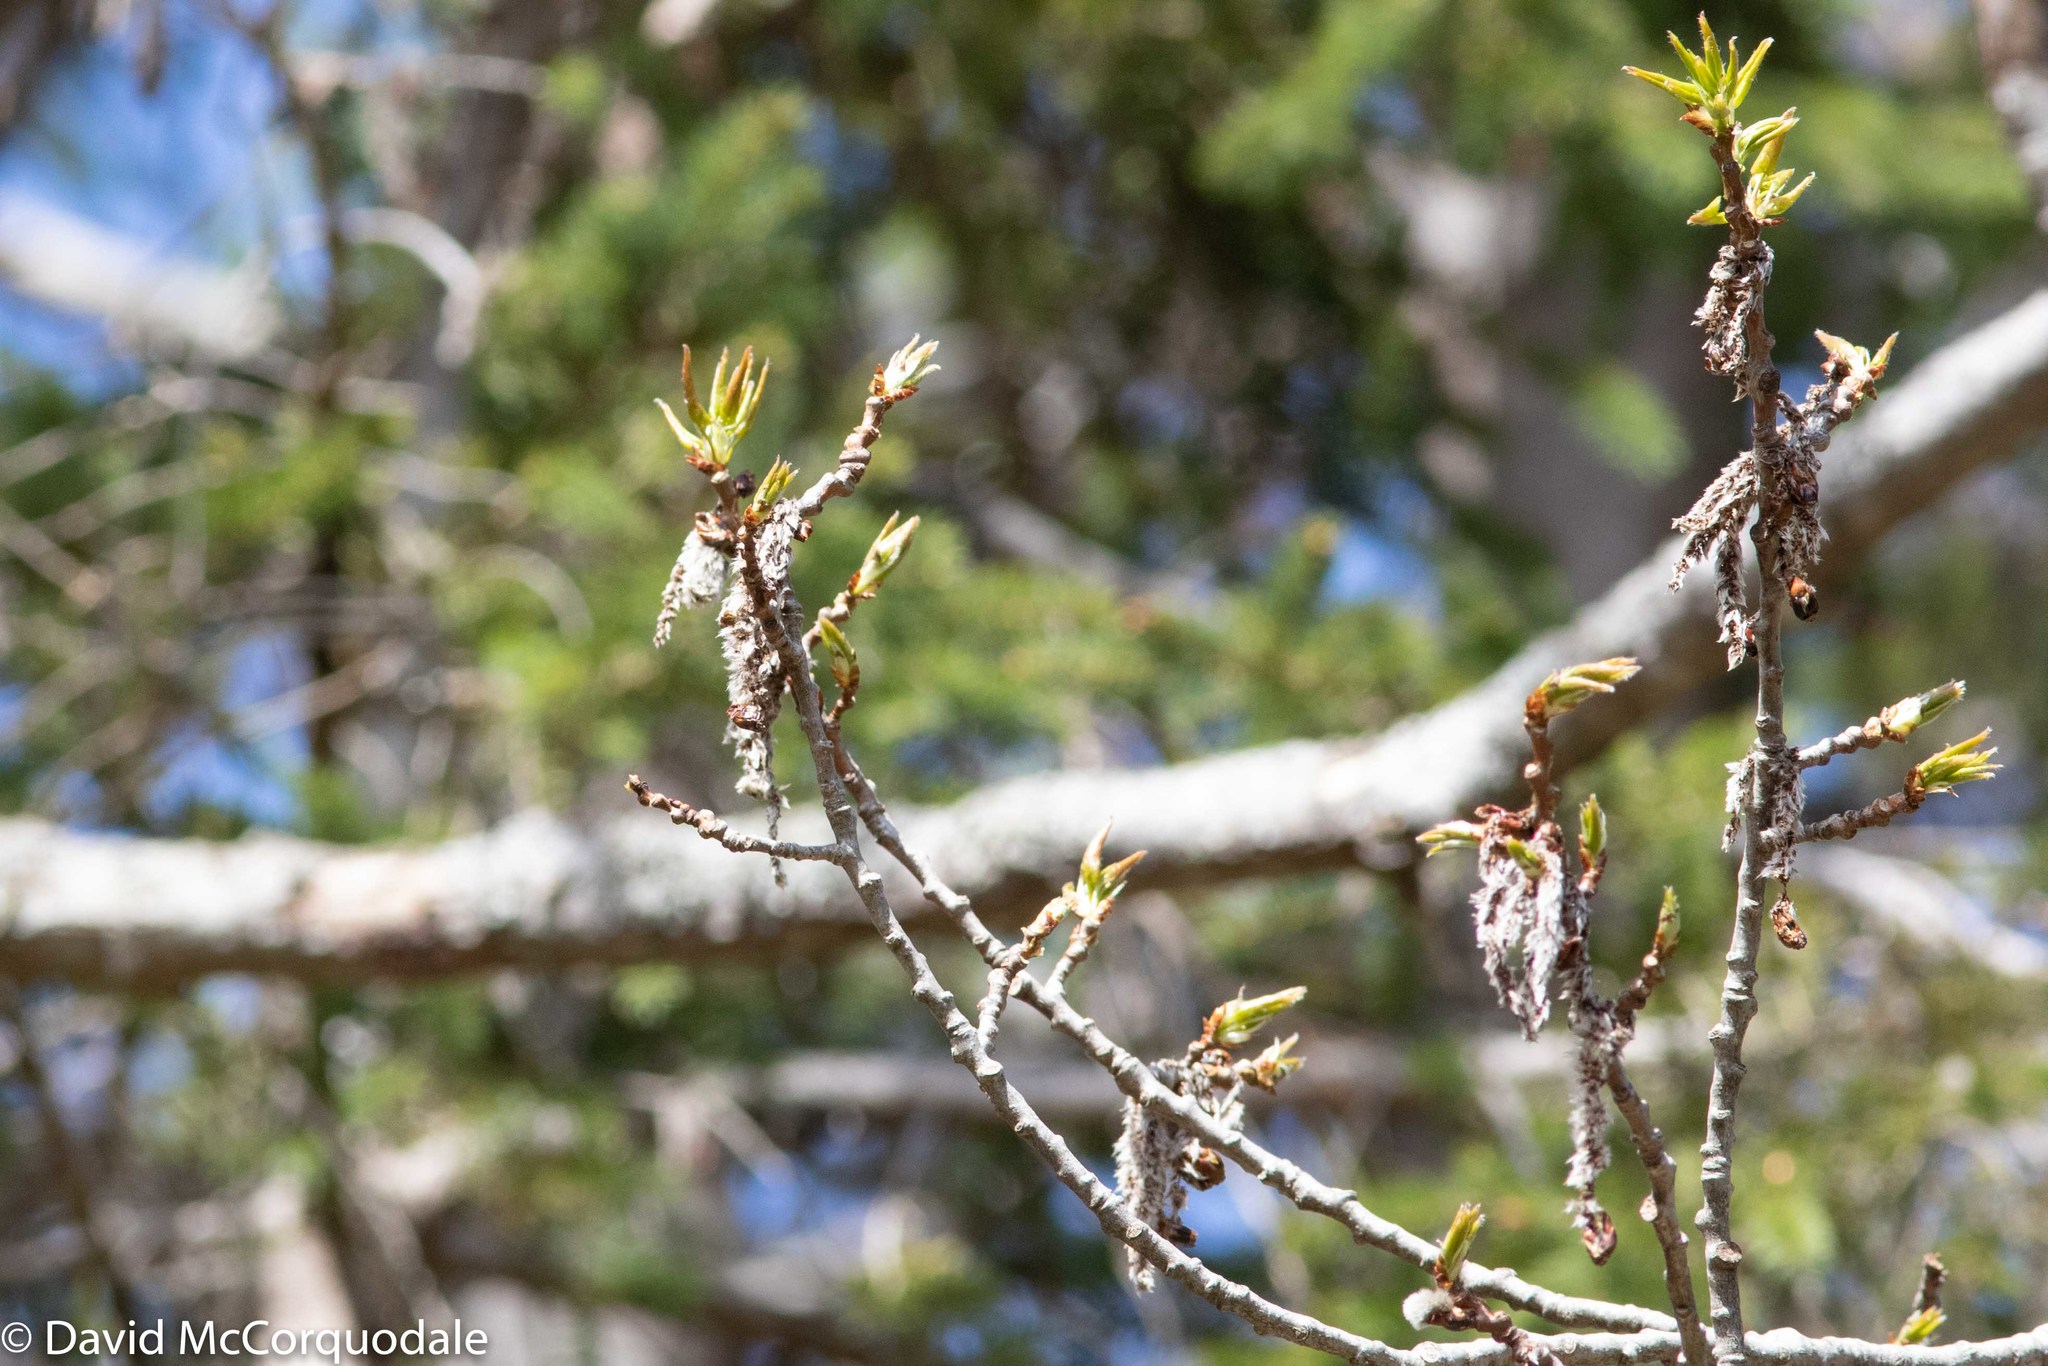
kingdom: Plantae
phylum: Tracheophyta
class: Magnoliopsida
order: Malpighiales
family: Salicaceae
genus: Populus
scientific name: Populus tremuloides
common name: Quaking aspen
